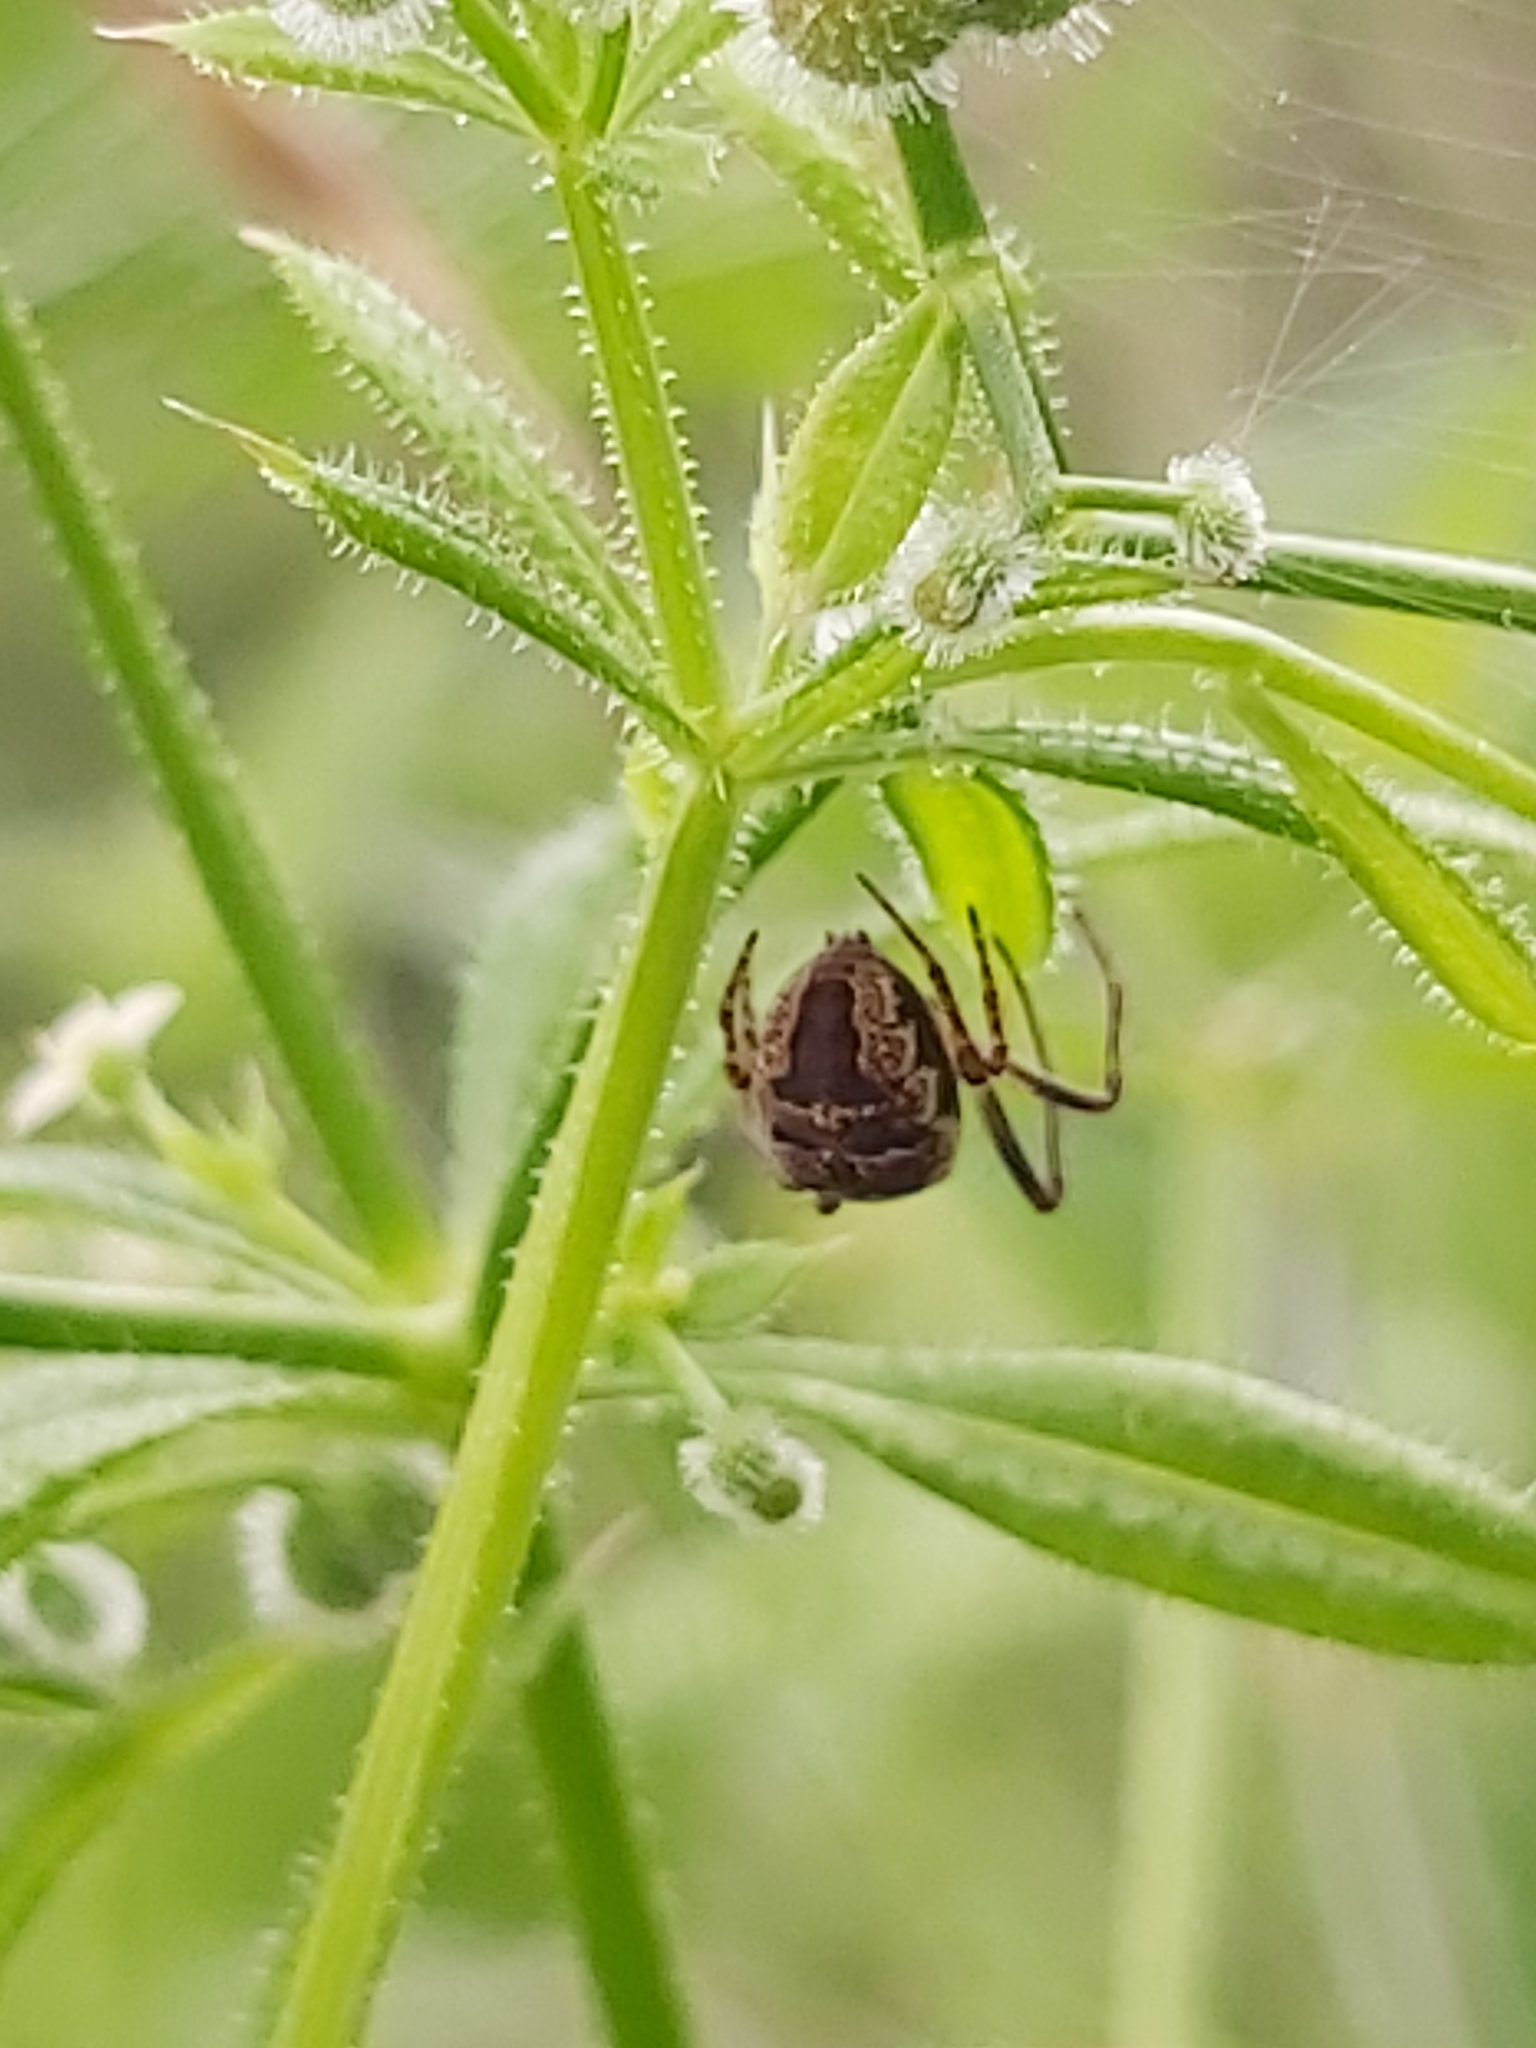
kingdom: Animalia
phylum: Arthropoda
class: Arachnida
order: Araneae
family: Araneidae
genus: Zilla
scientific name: Zilla diodia
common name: Zilla diodia
